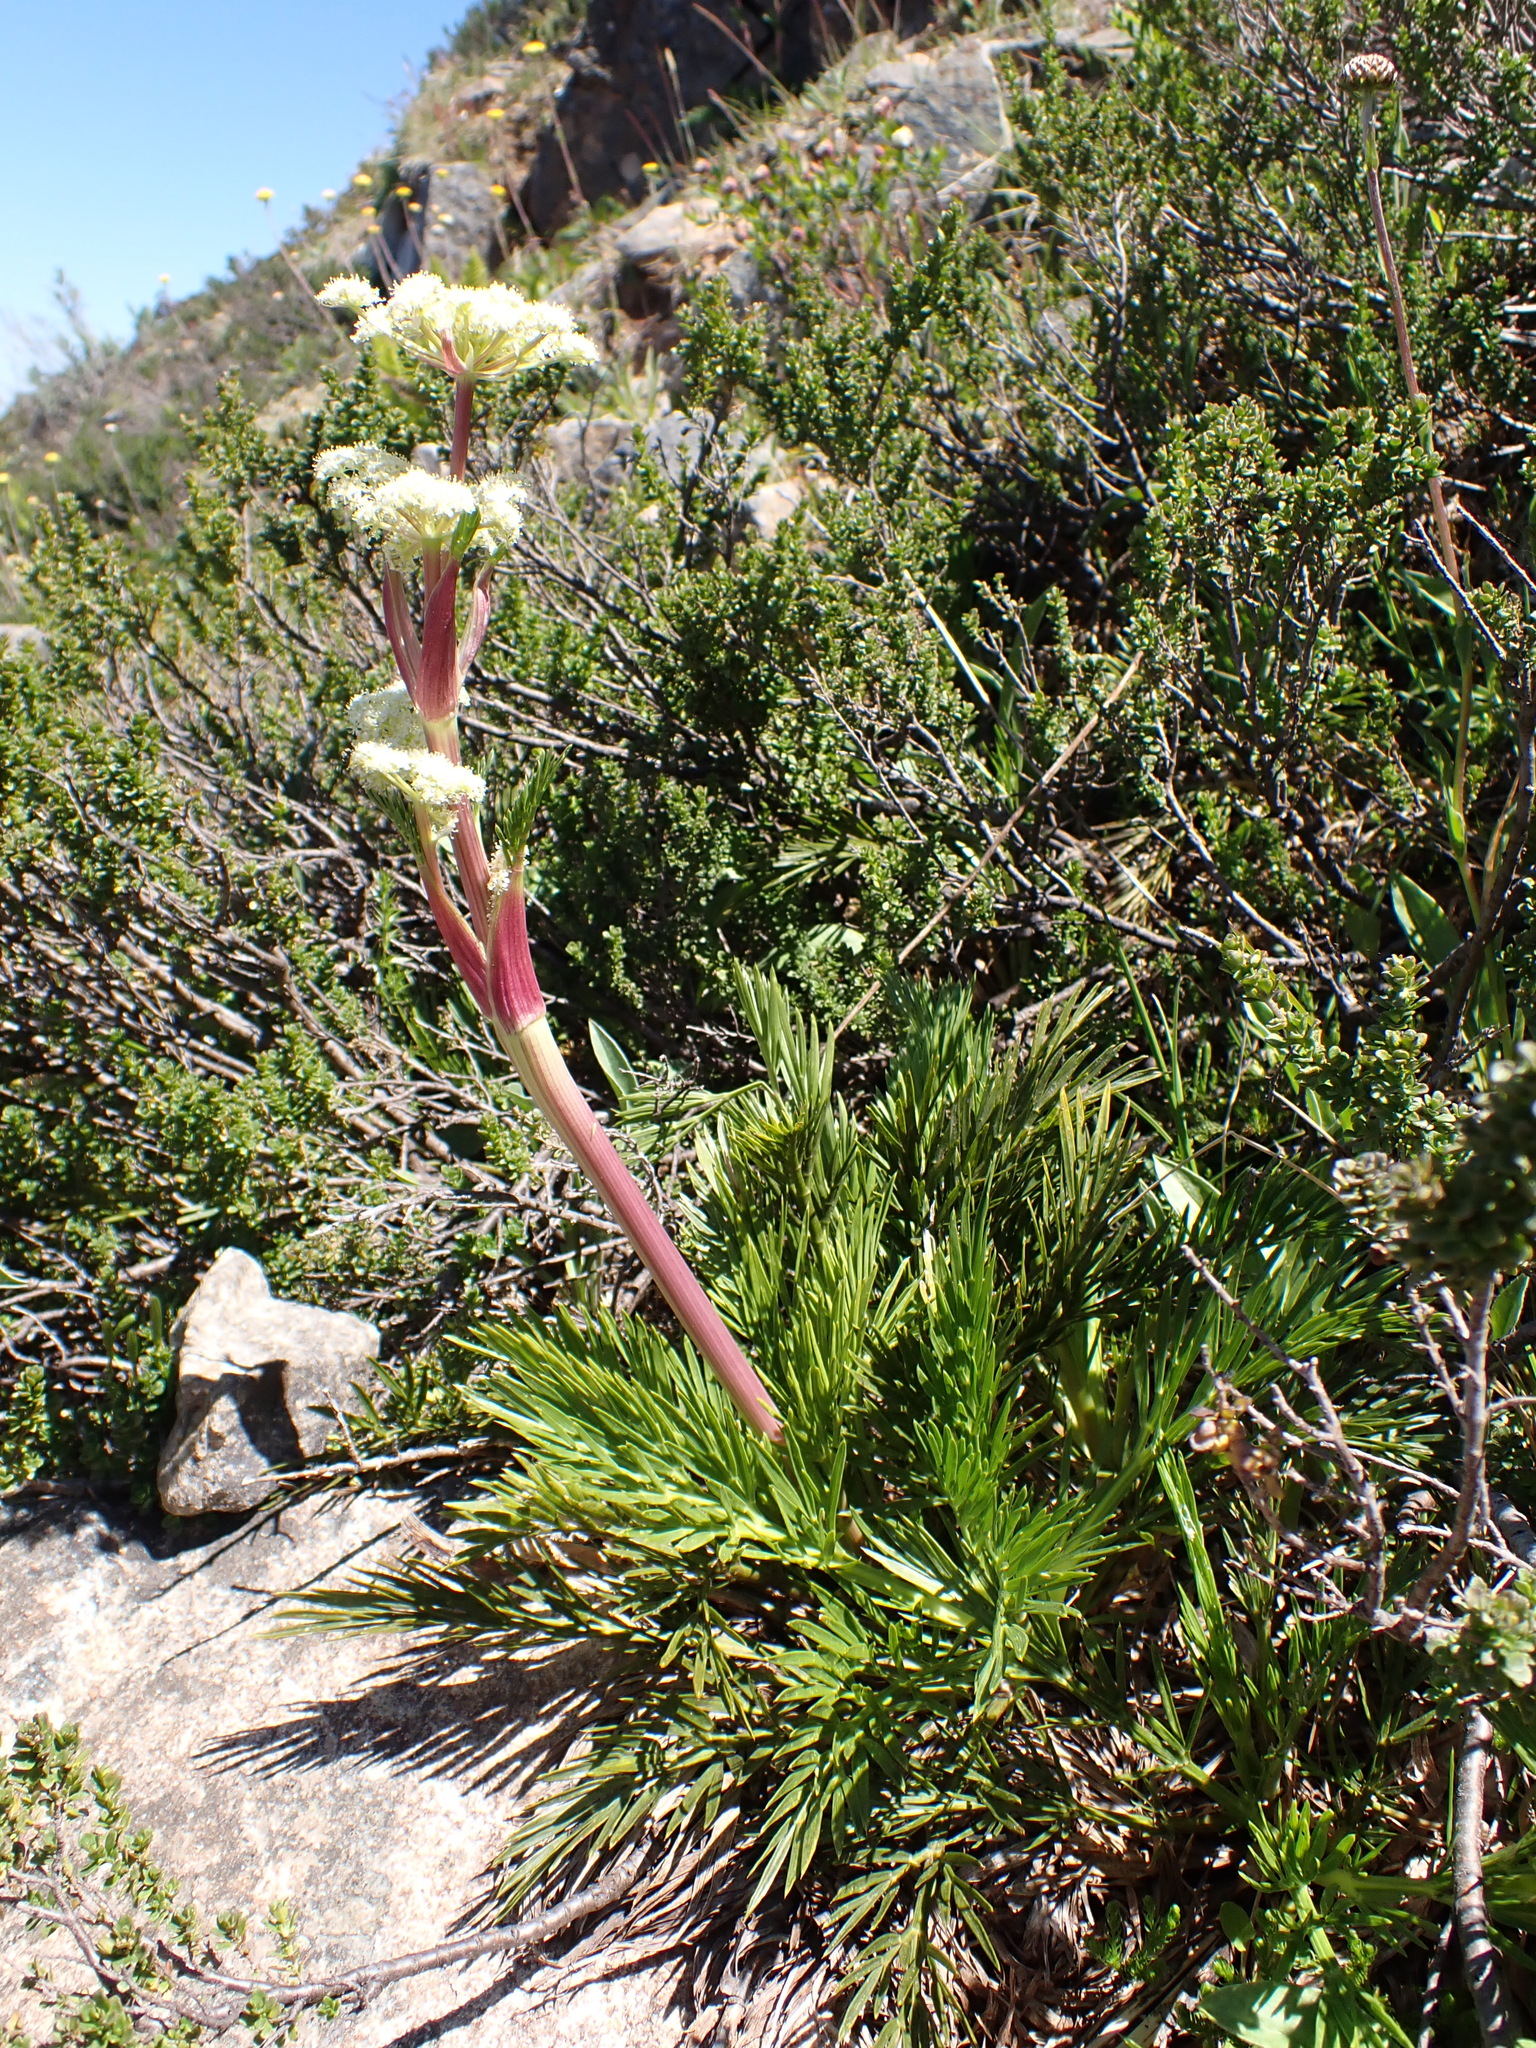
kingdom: Plantae
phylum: Tracheophyta
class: Magnoliopsida
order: Apiales
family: Apiaceae
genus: Aciphylla
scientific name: Aciphylla glacialis
